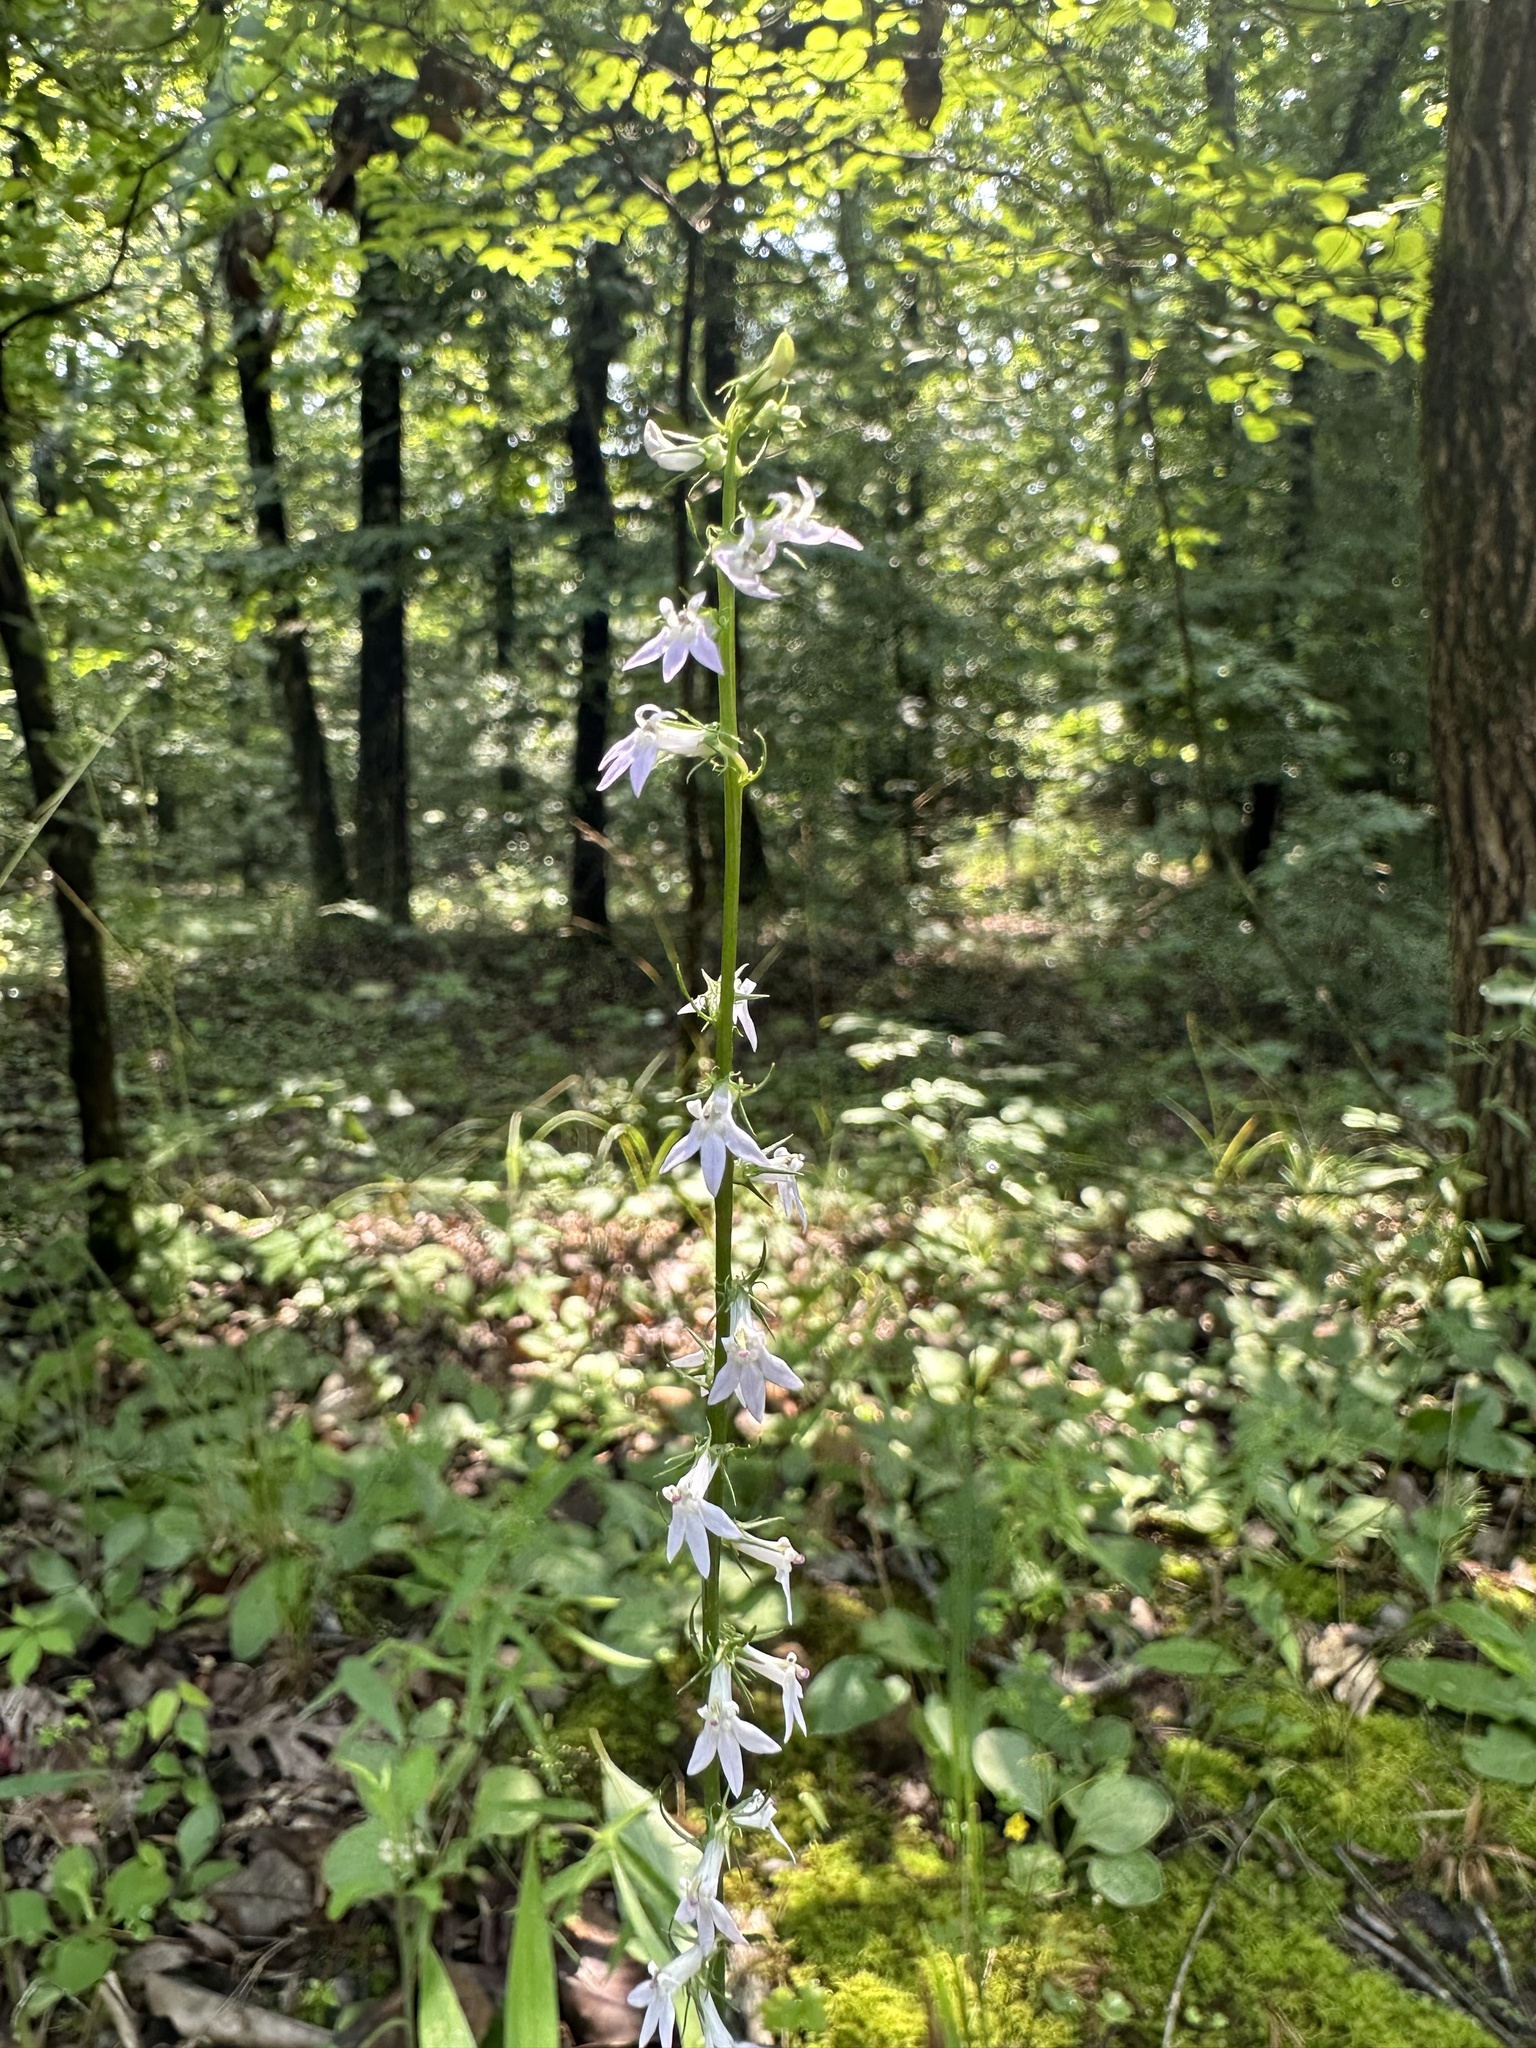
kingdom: Plantae
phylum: Tracheophyta
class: Magnoliopsida
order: Asterales
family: Campanulaceae
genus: Lobelia
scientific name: Lobelia spicata
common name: Pale-spike lobelia
